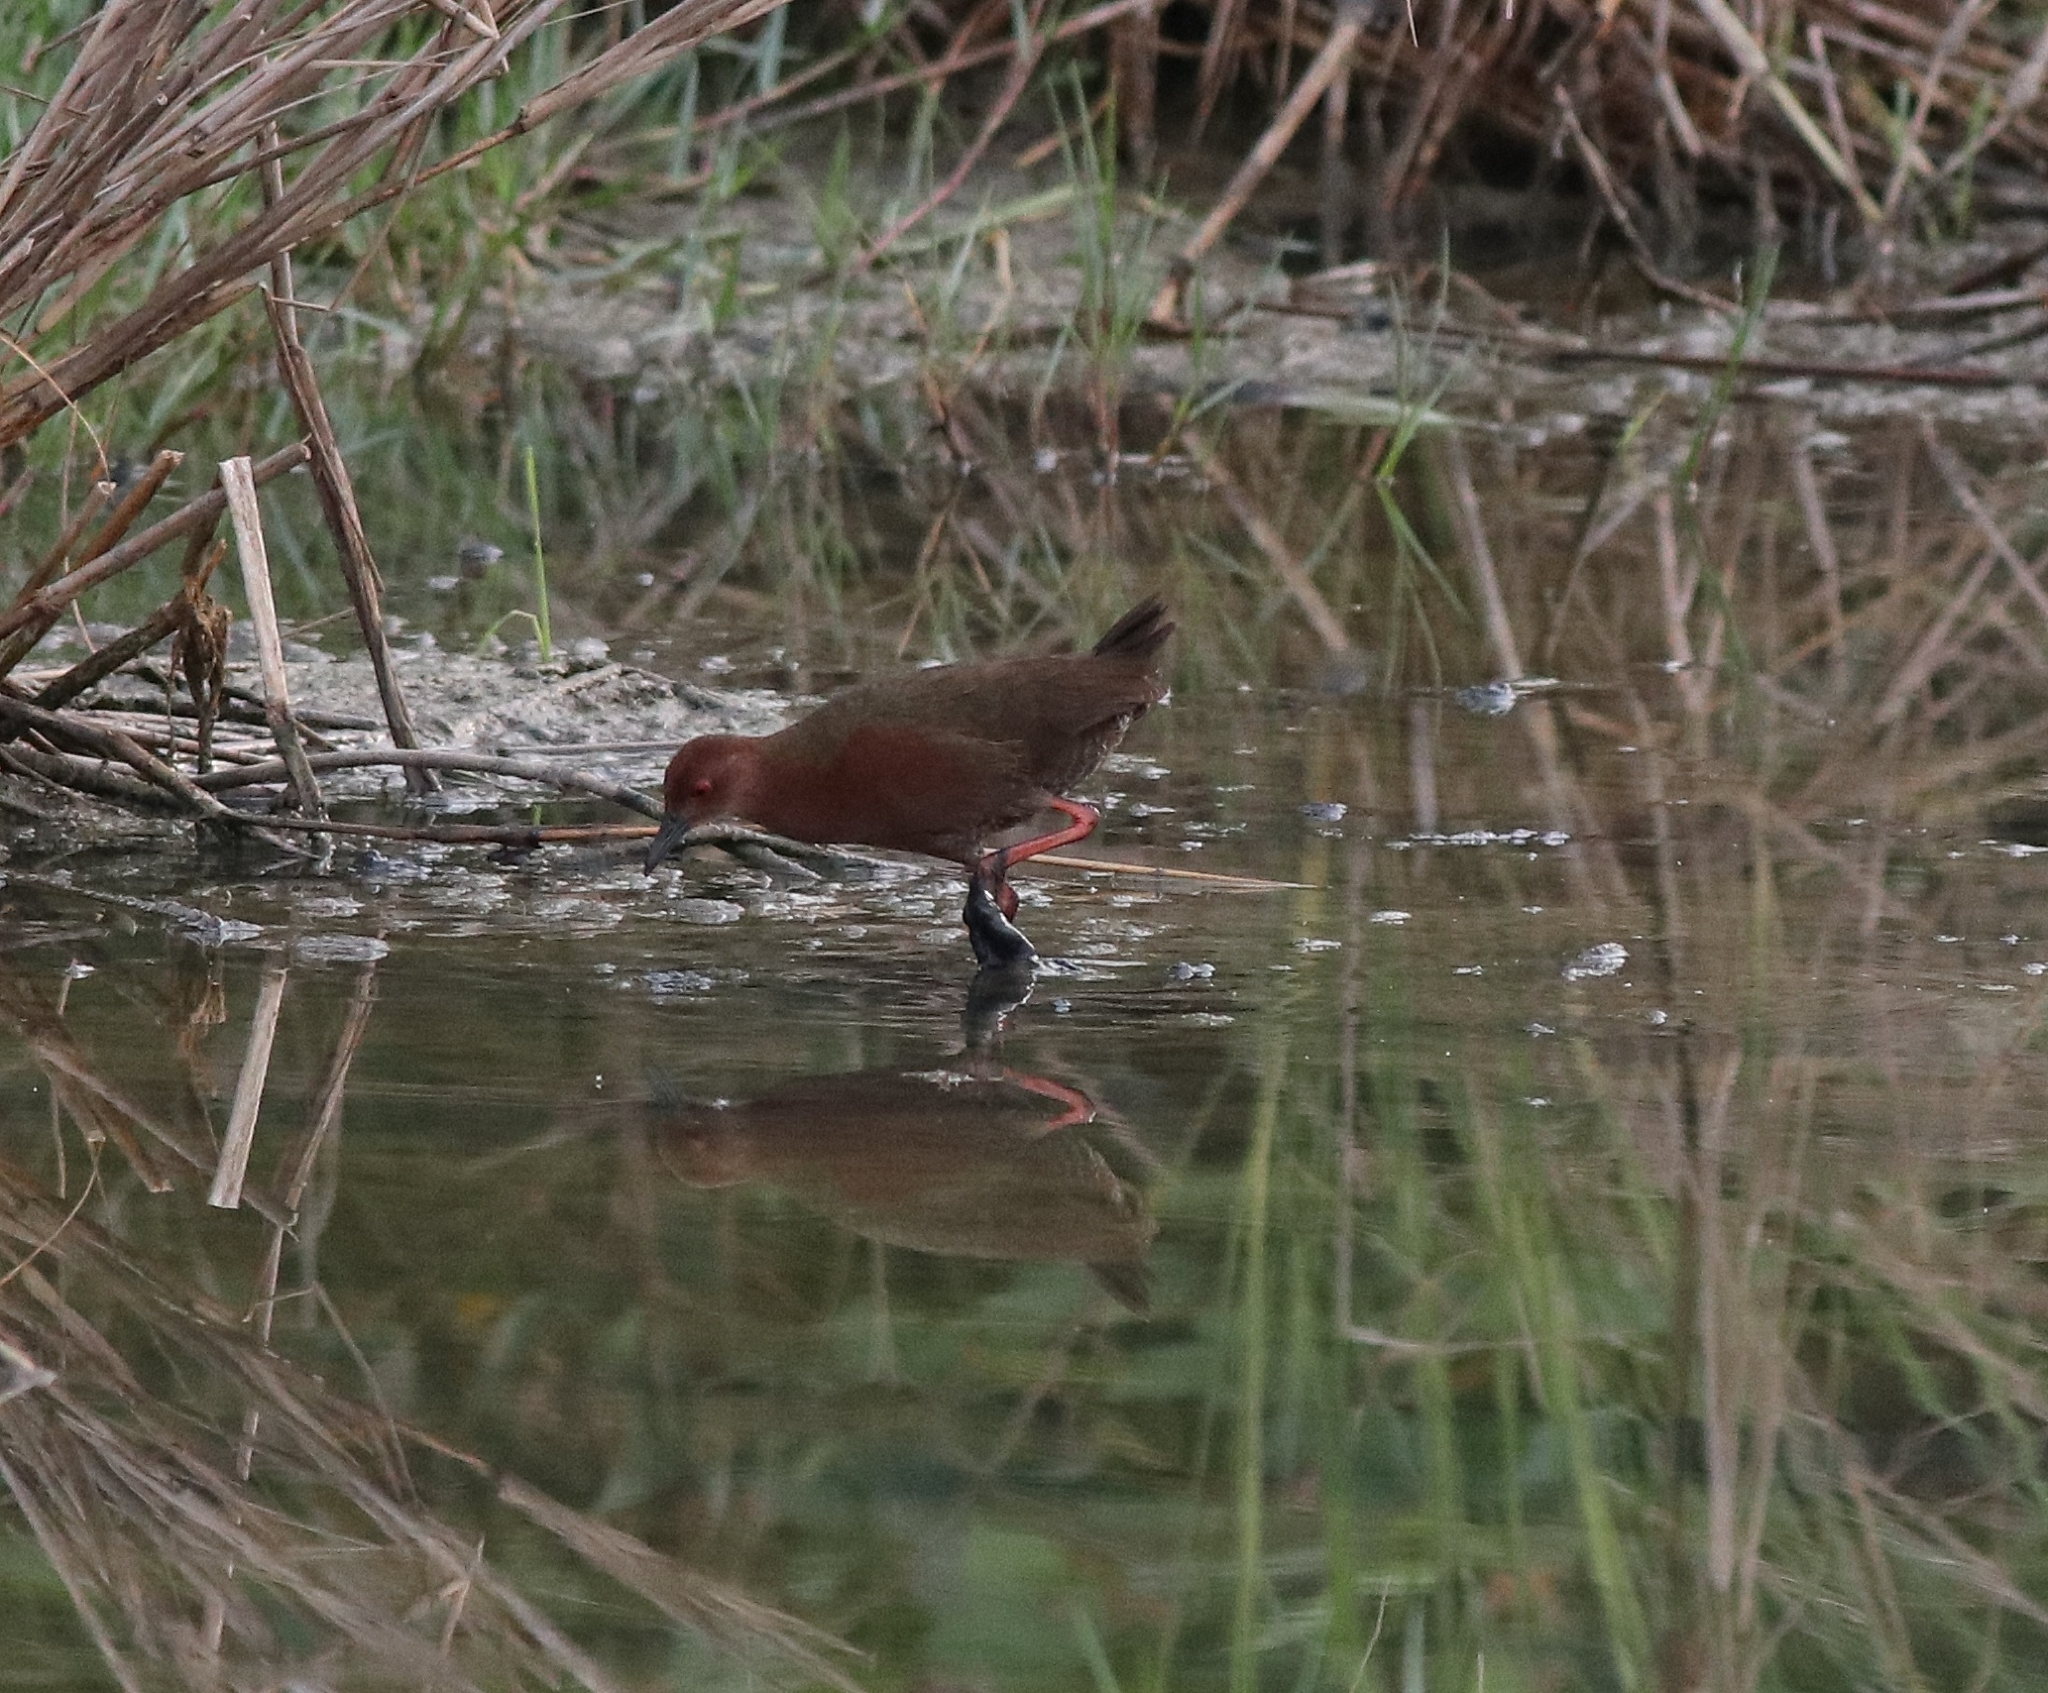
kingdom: Animalia
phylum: Chordata
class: Aves
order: Gruiformes
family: Rallidae
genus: Porzana
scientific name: Porzana fusca
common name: Ruddy-breasted crake
